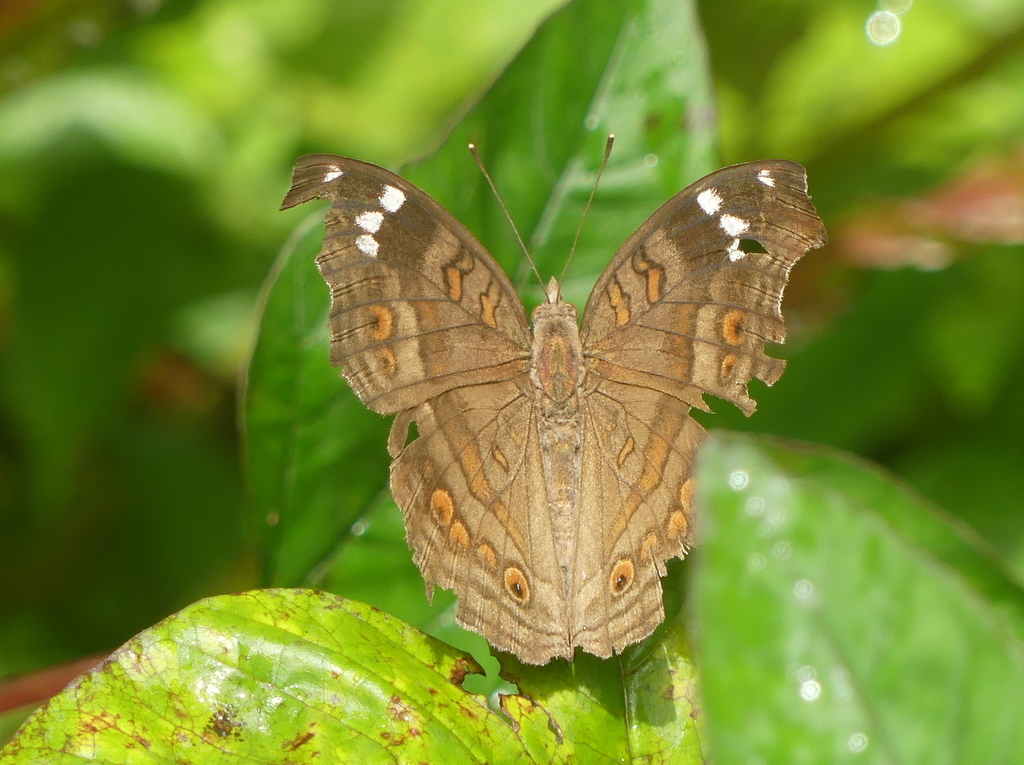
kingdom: Animalia
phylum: Arthropoda
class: Insecta
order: Lepidoptera
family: Nymphalidae
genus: Junonia
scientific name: Junonia natalica
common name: Brown pansy
